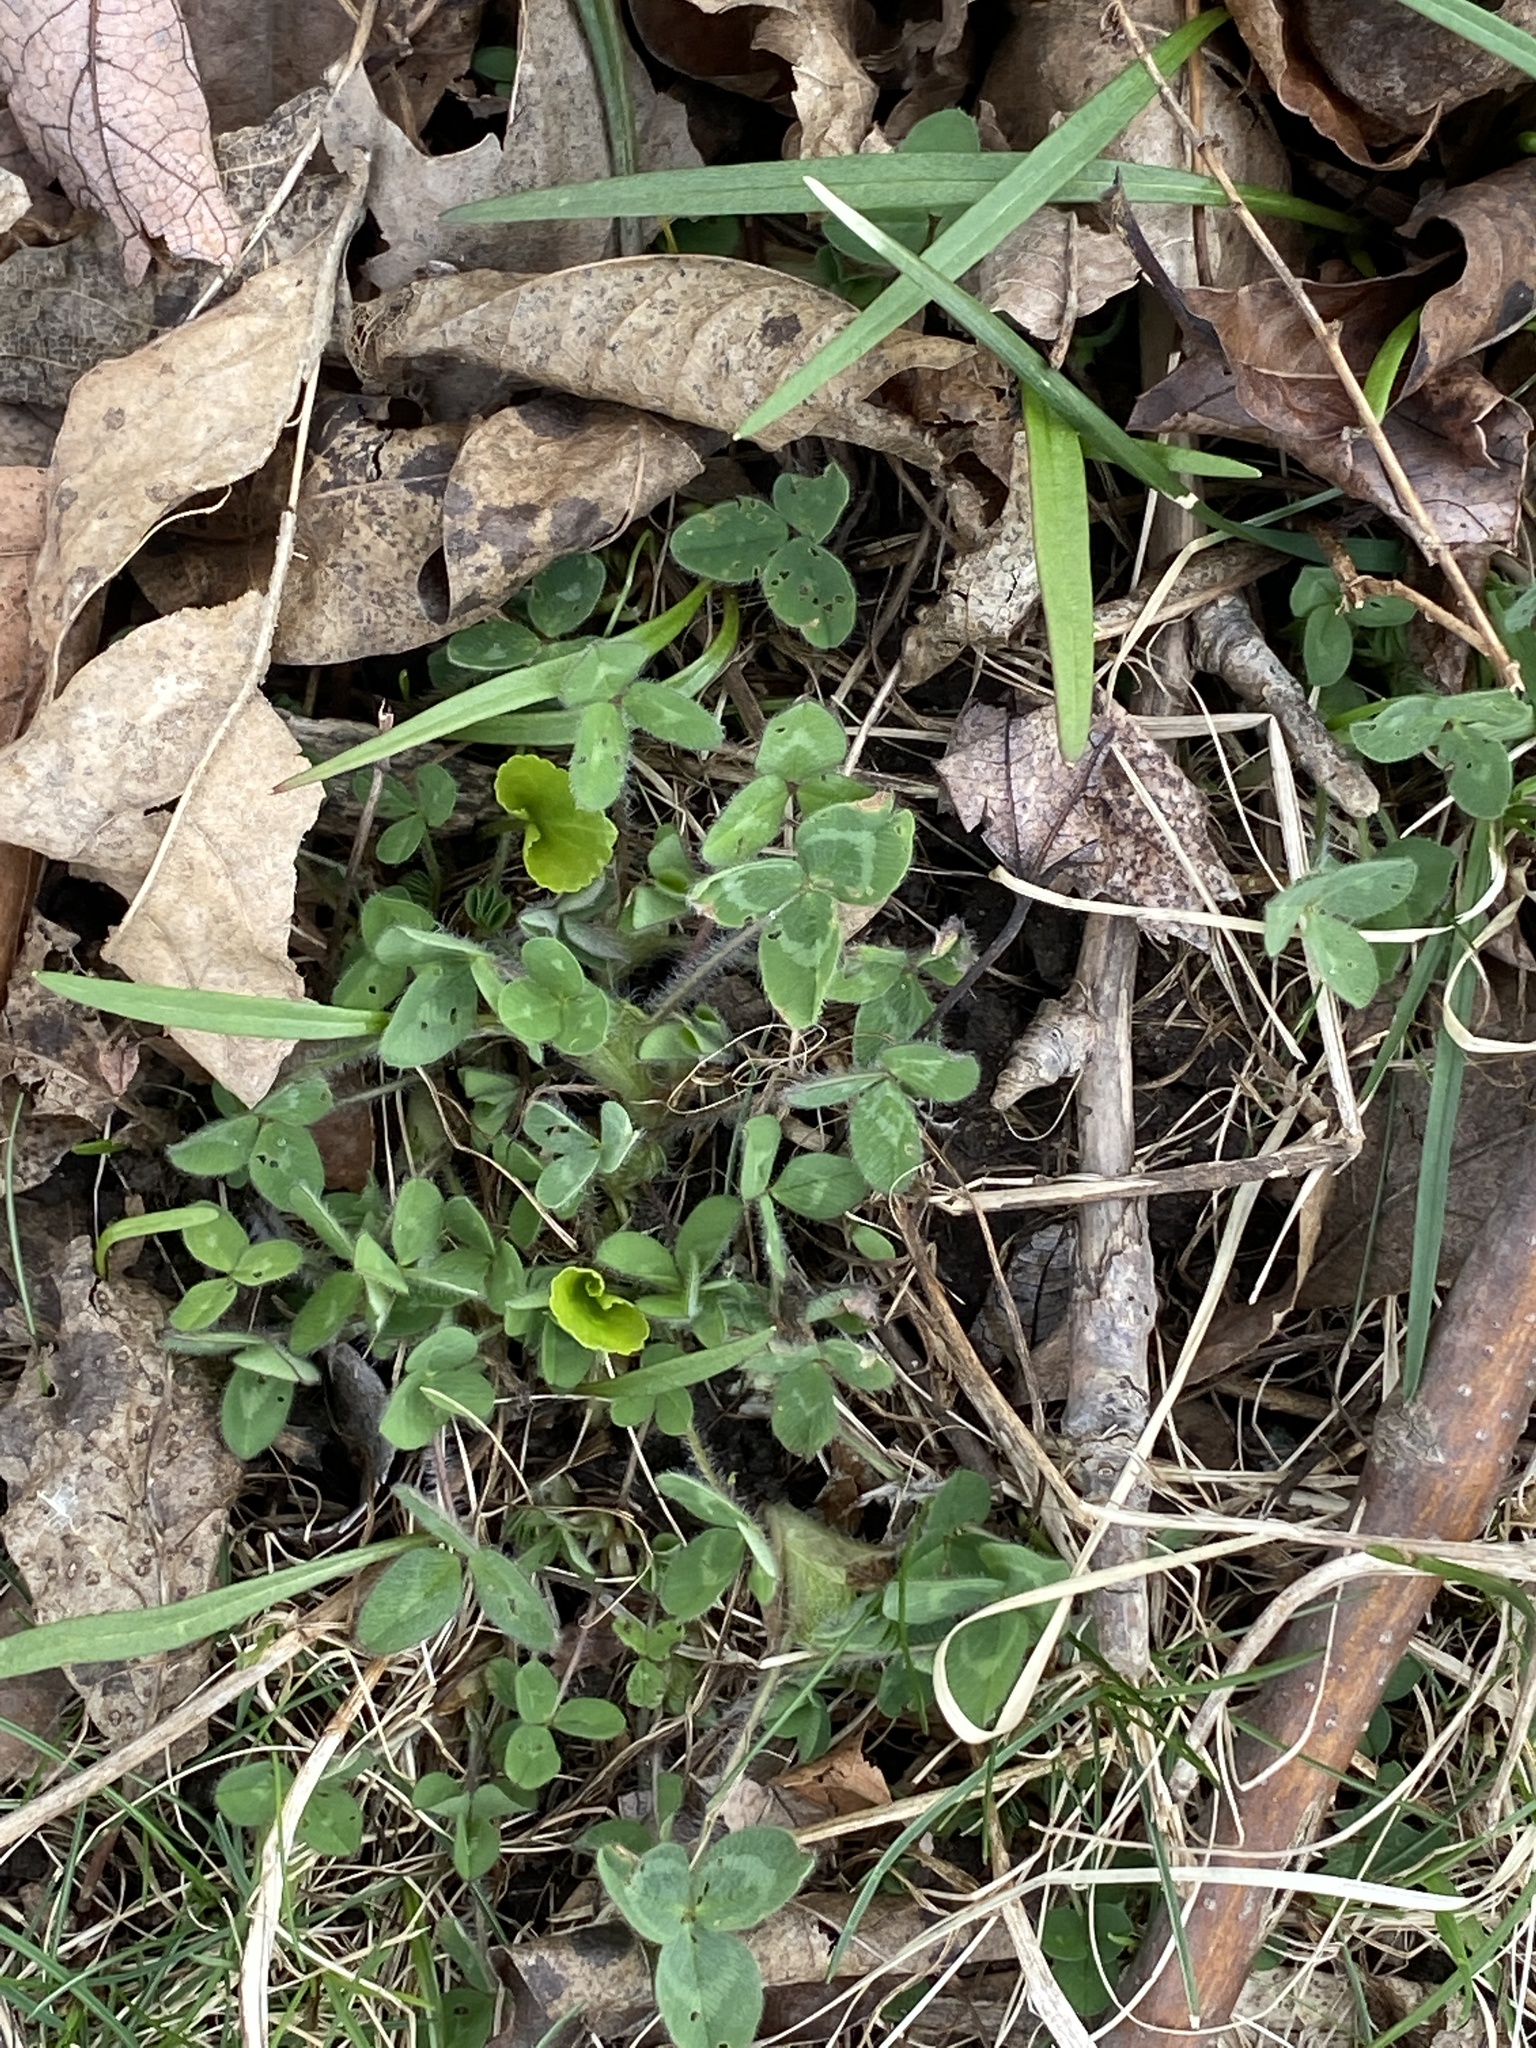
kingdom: Plantae
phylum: Tracheophyta
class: Magnoliopsida
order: Fabales
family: Fabaceae
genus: Trifolium
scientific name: Trifolium pratense
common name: Red clover
